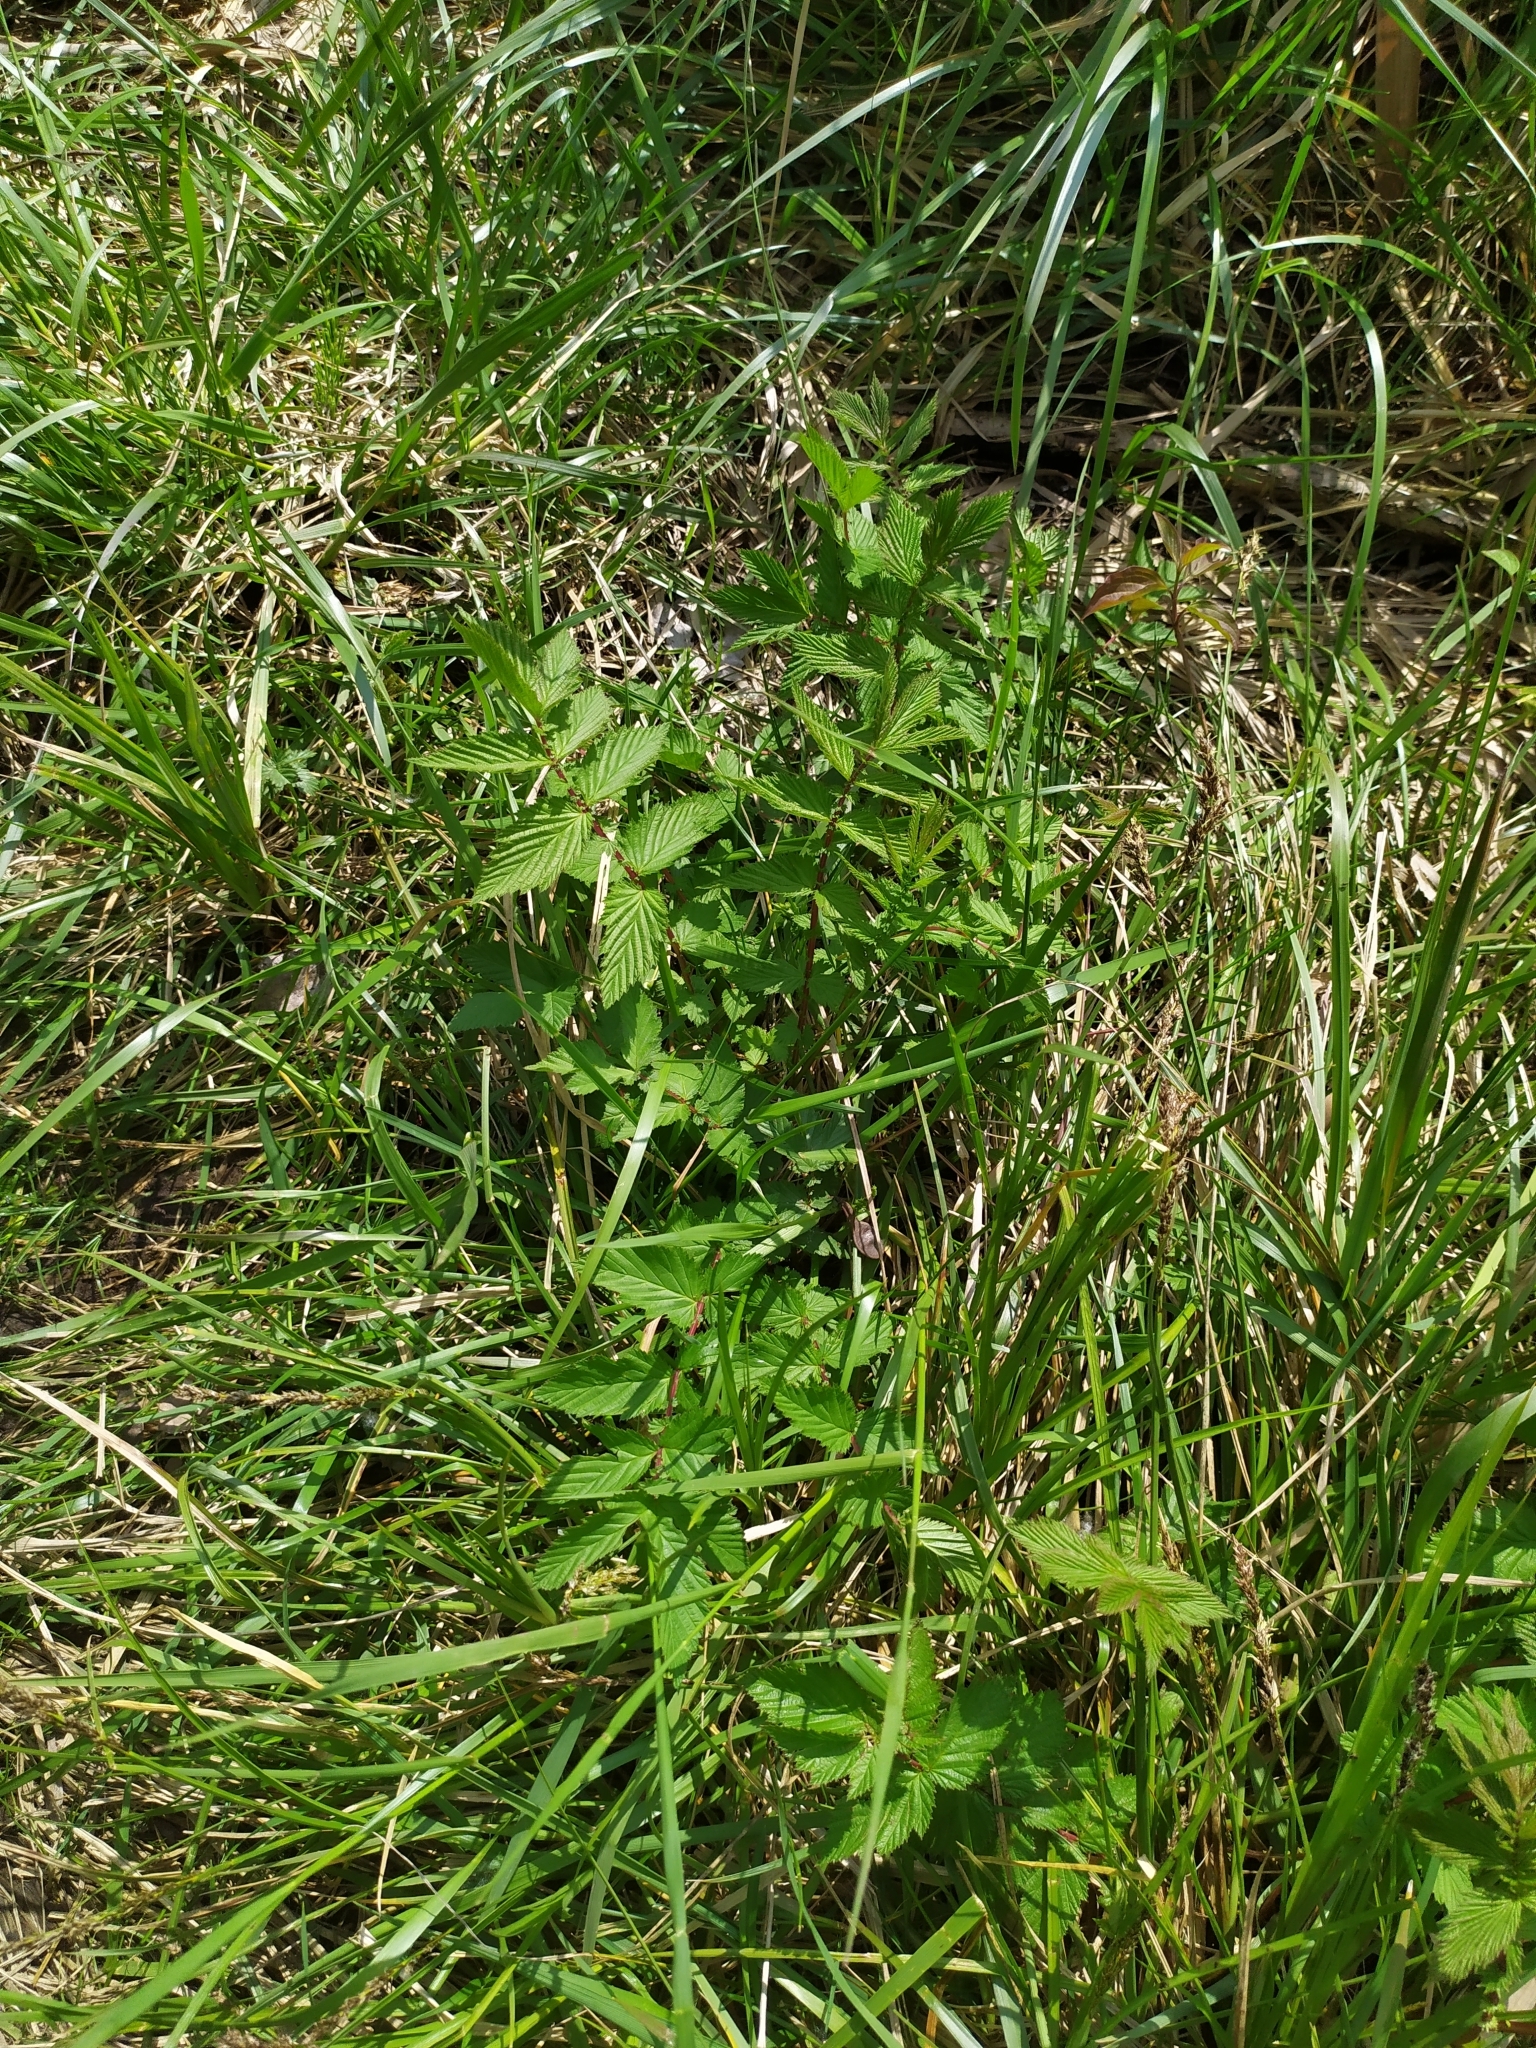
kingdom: Plantae
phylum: Tracheophyta
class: Magnoliopsida
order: Rosales
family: Rosaceae
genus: Filipendula
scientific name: Filipendula ulmaria
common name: Meadowsweet
